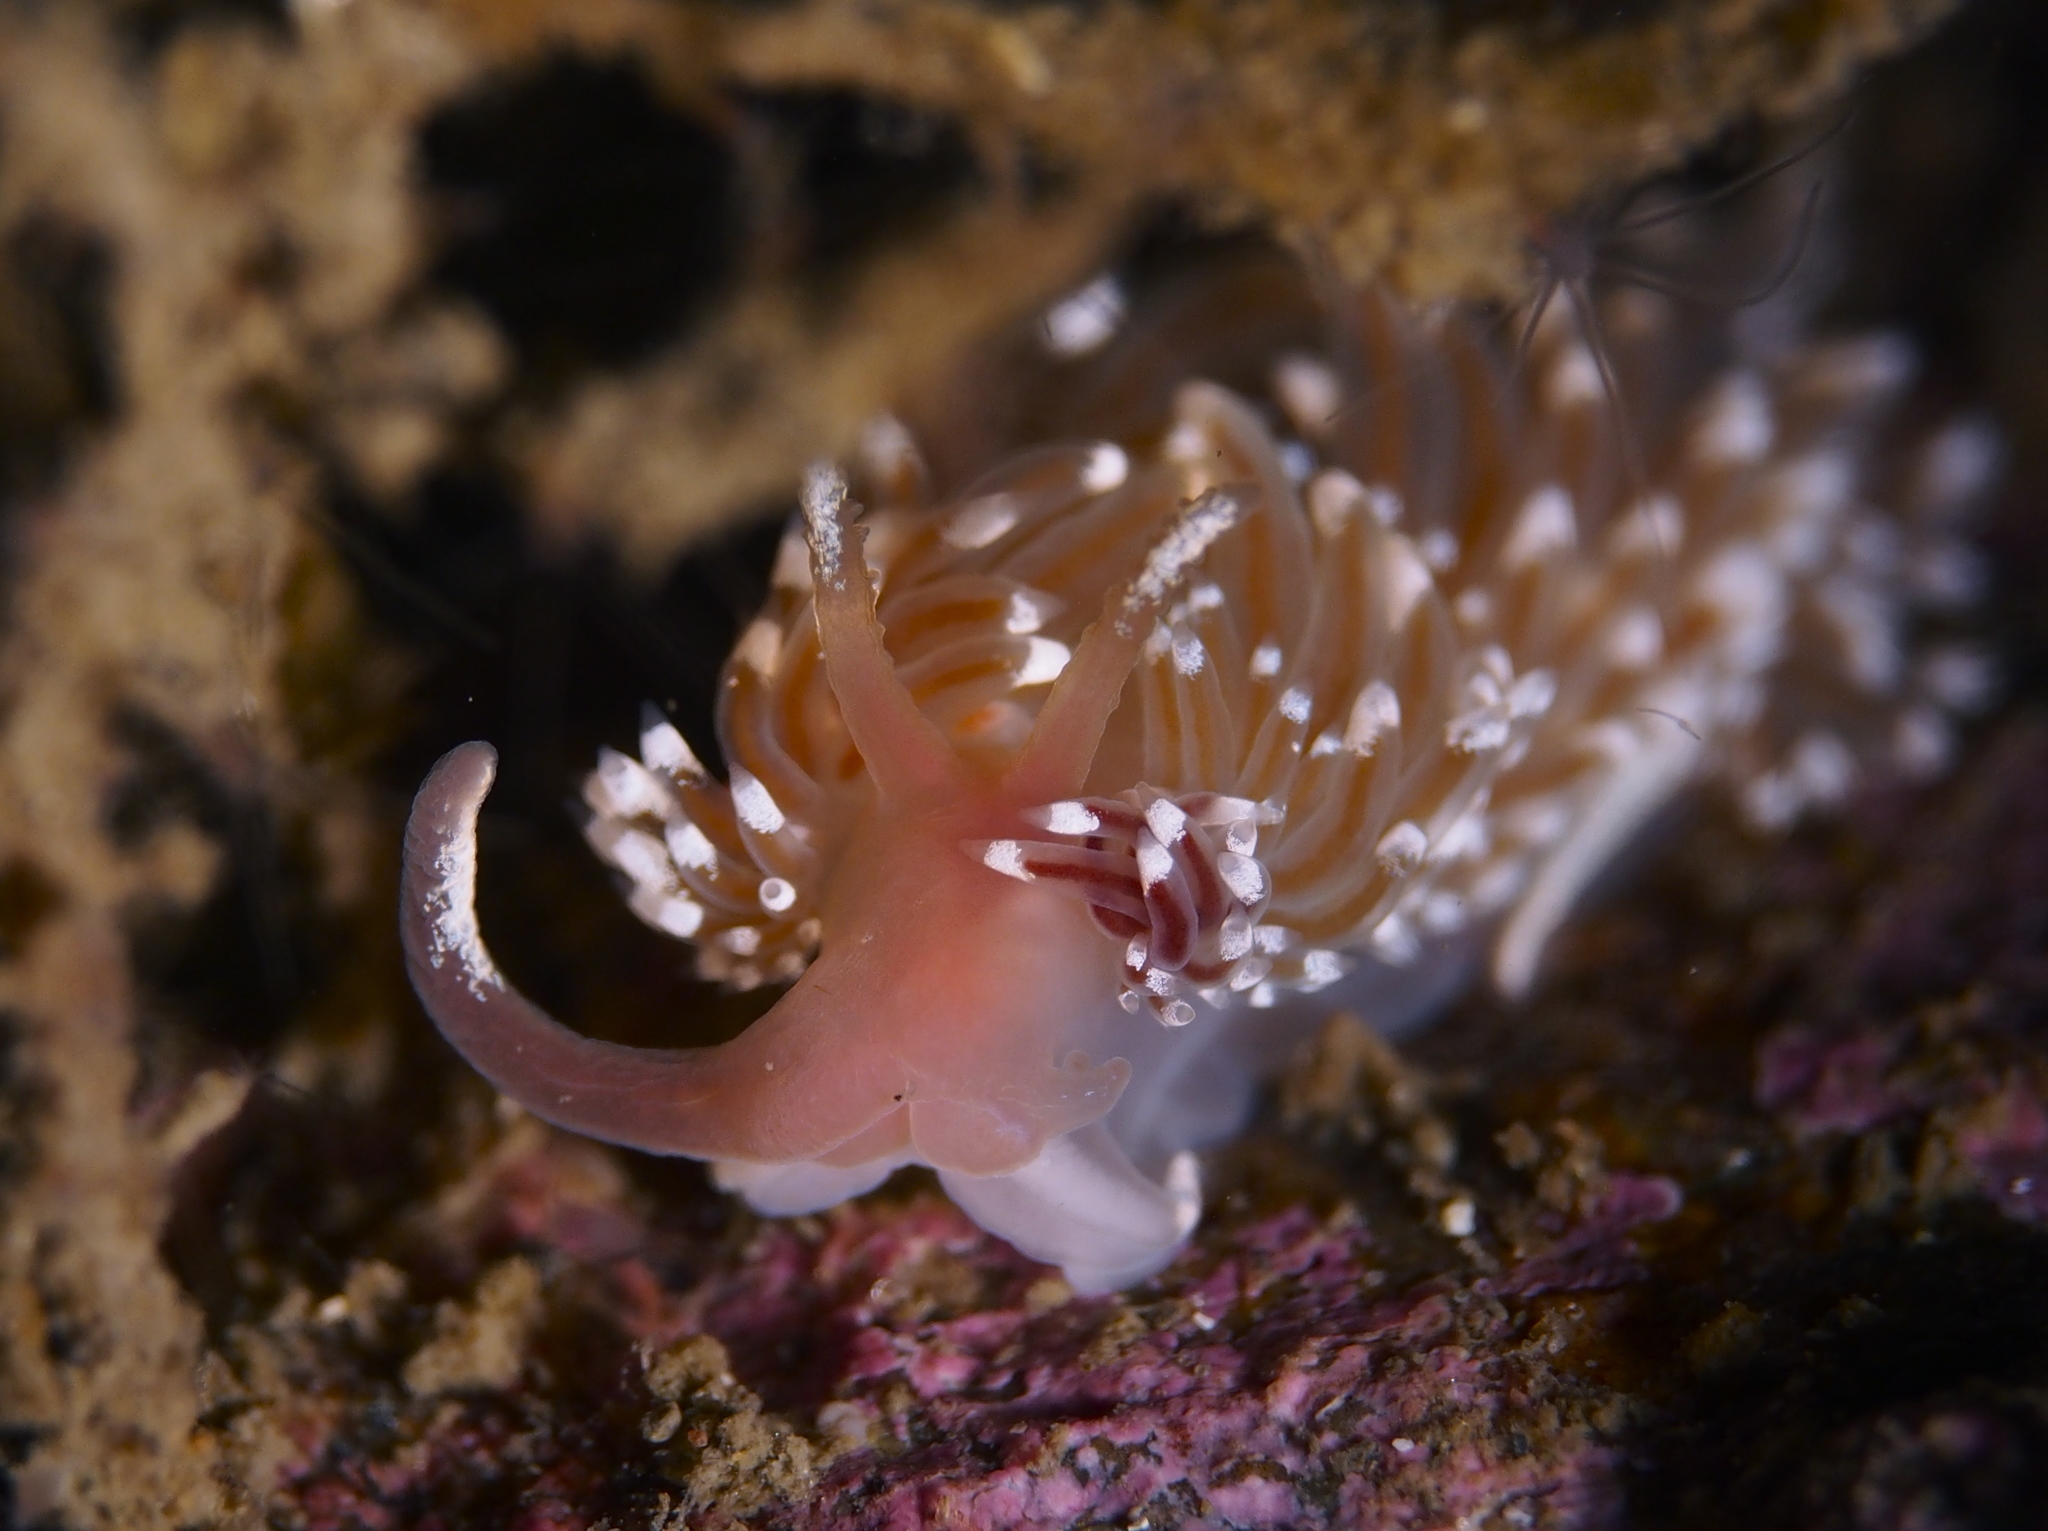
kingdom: Animalia
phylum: Mollusca
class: Gastropoda
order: Nudibranchia
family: Facelinidae
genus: Facelina
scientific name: Facelina bostoniensis
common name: Boston facelina
